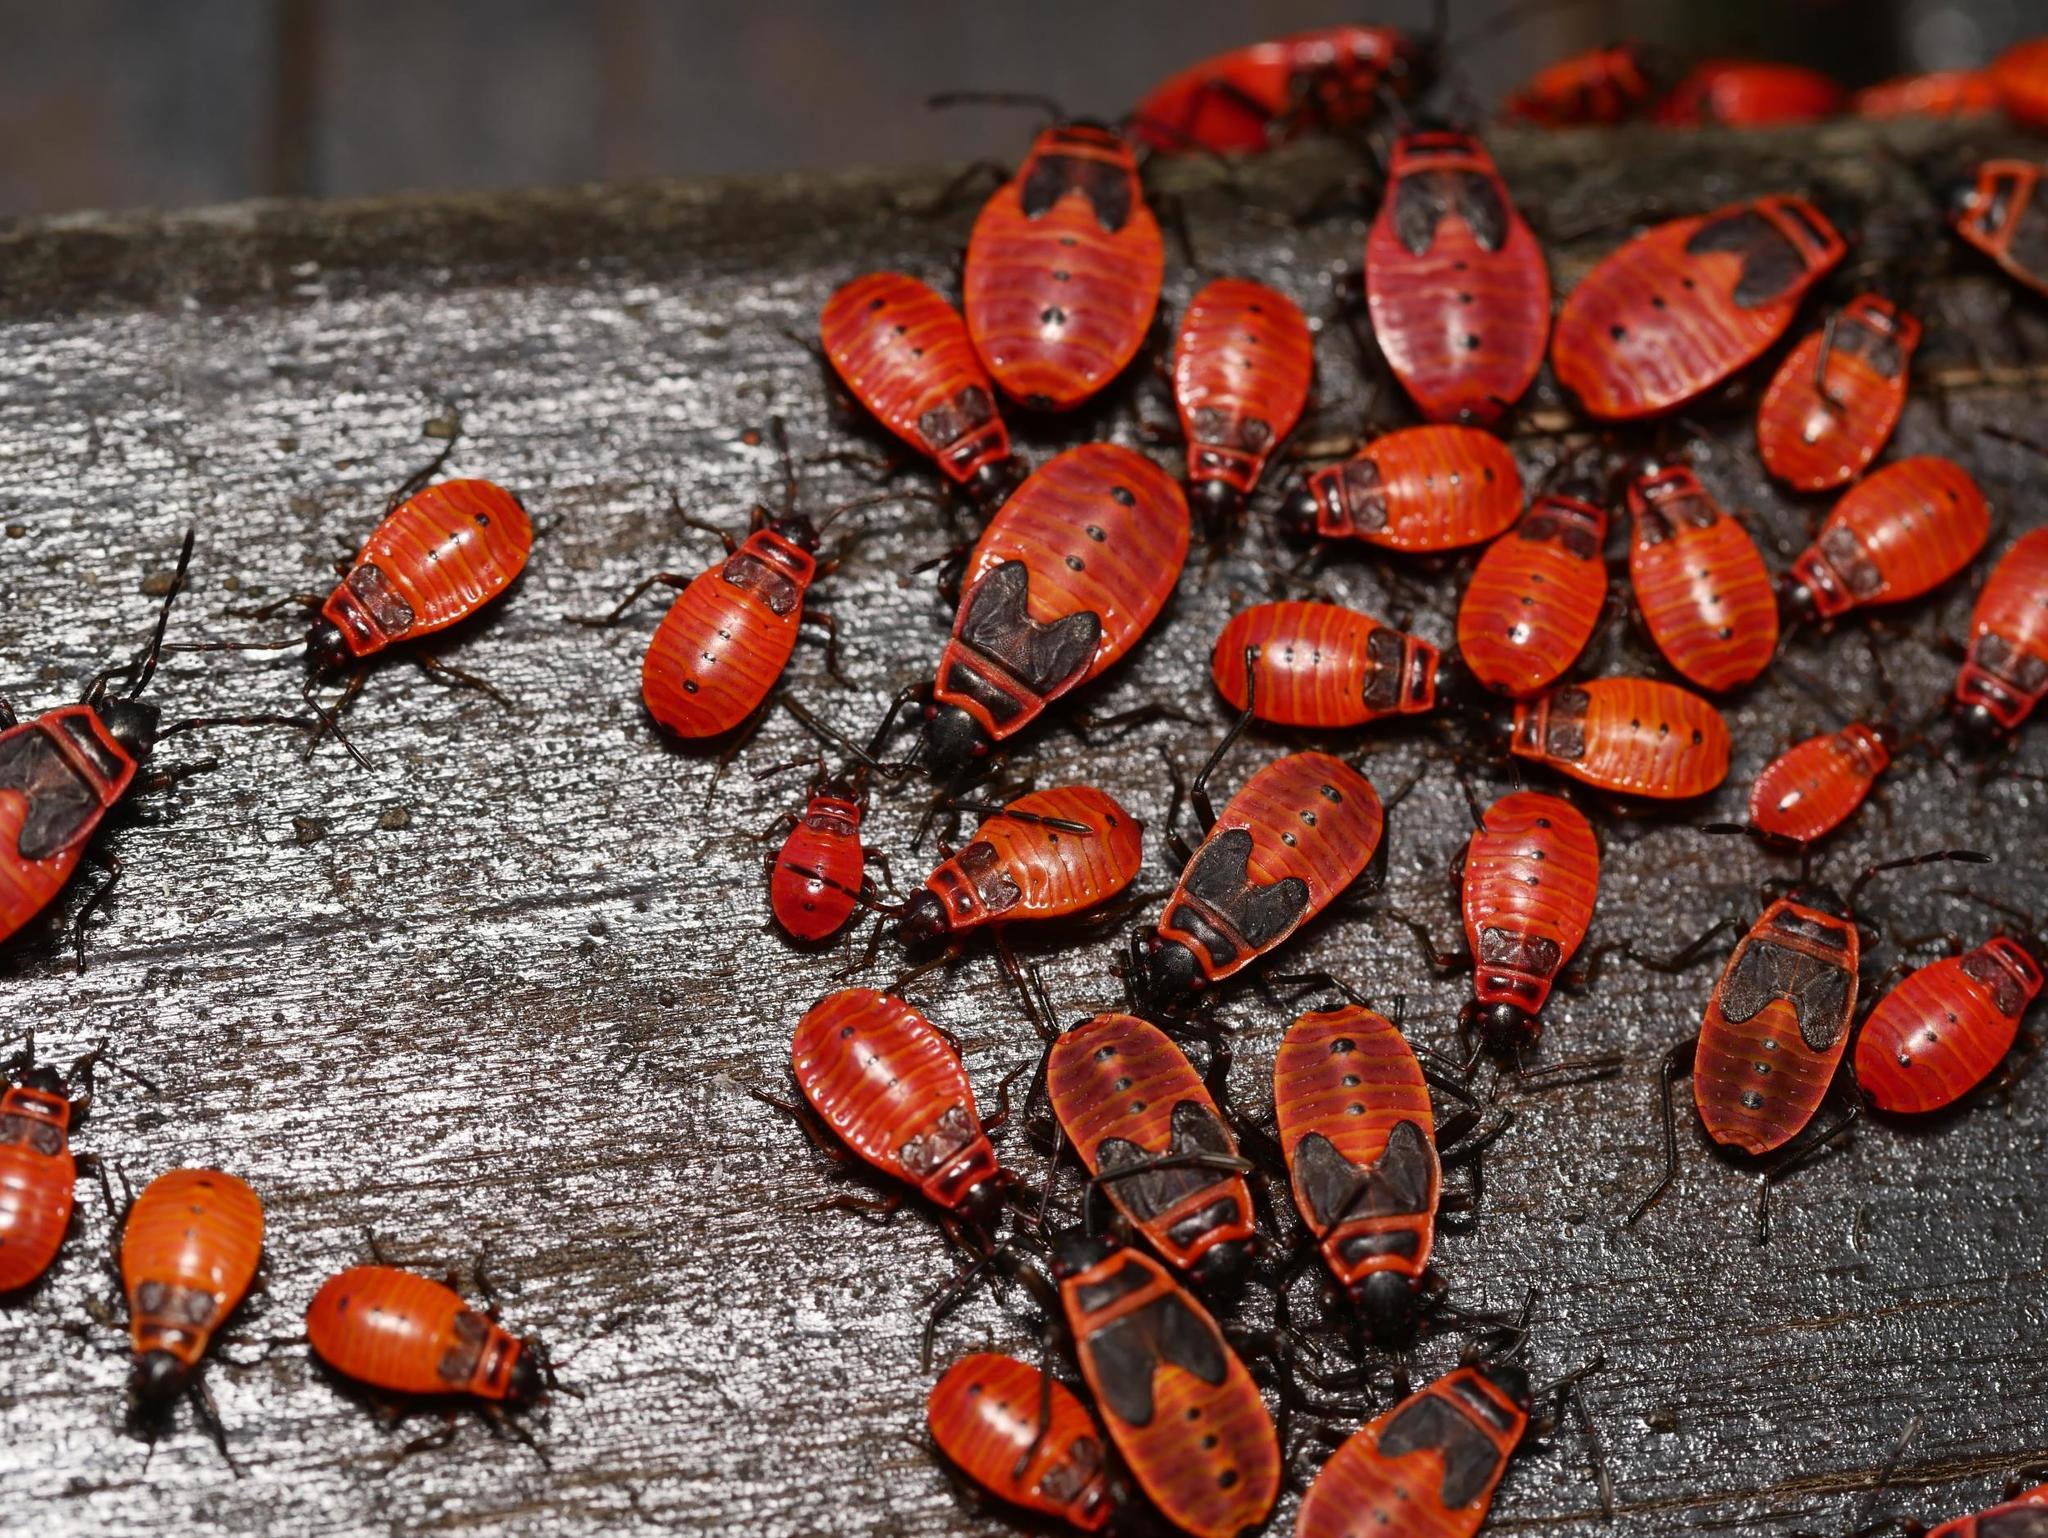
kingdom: Animalia
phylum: Arthropoda
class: Insecta
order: Hemiptera
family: Pyrrhocoridae
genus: Pyrrhocoris
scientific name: Pyrrhocoris apterus
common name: Firebug
